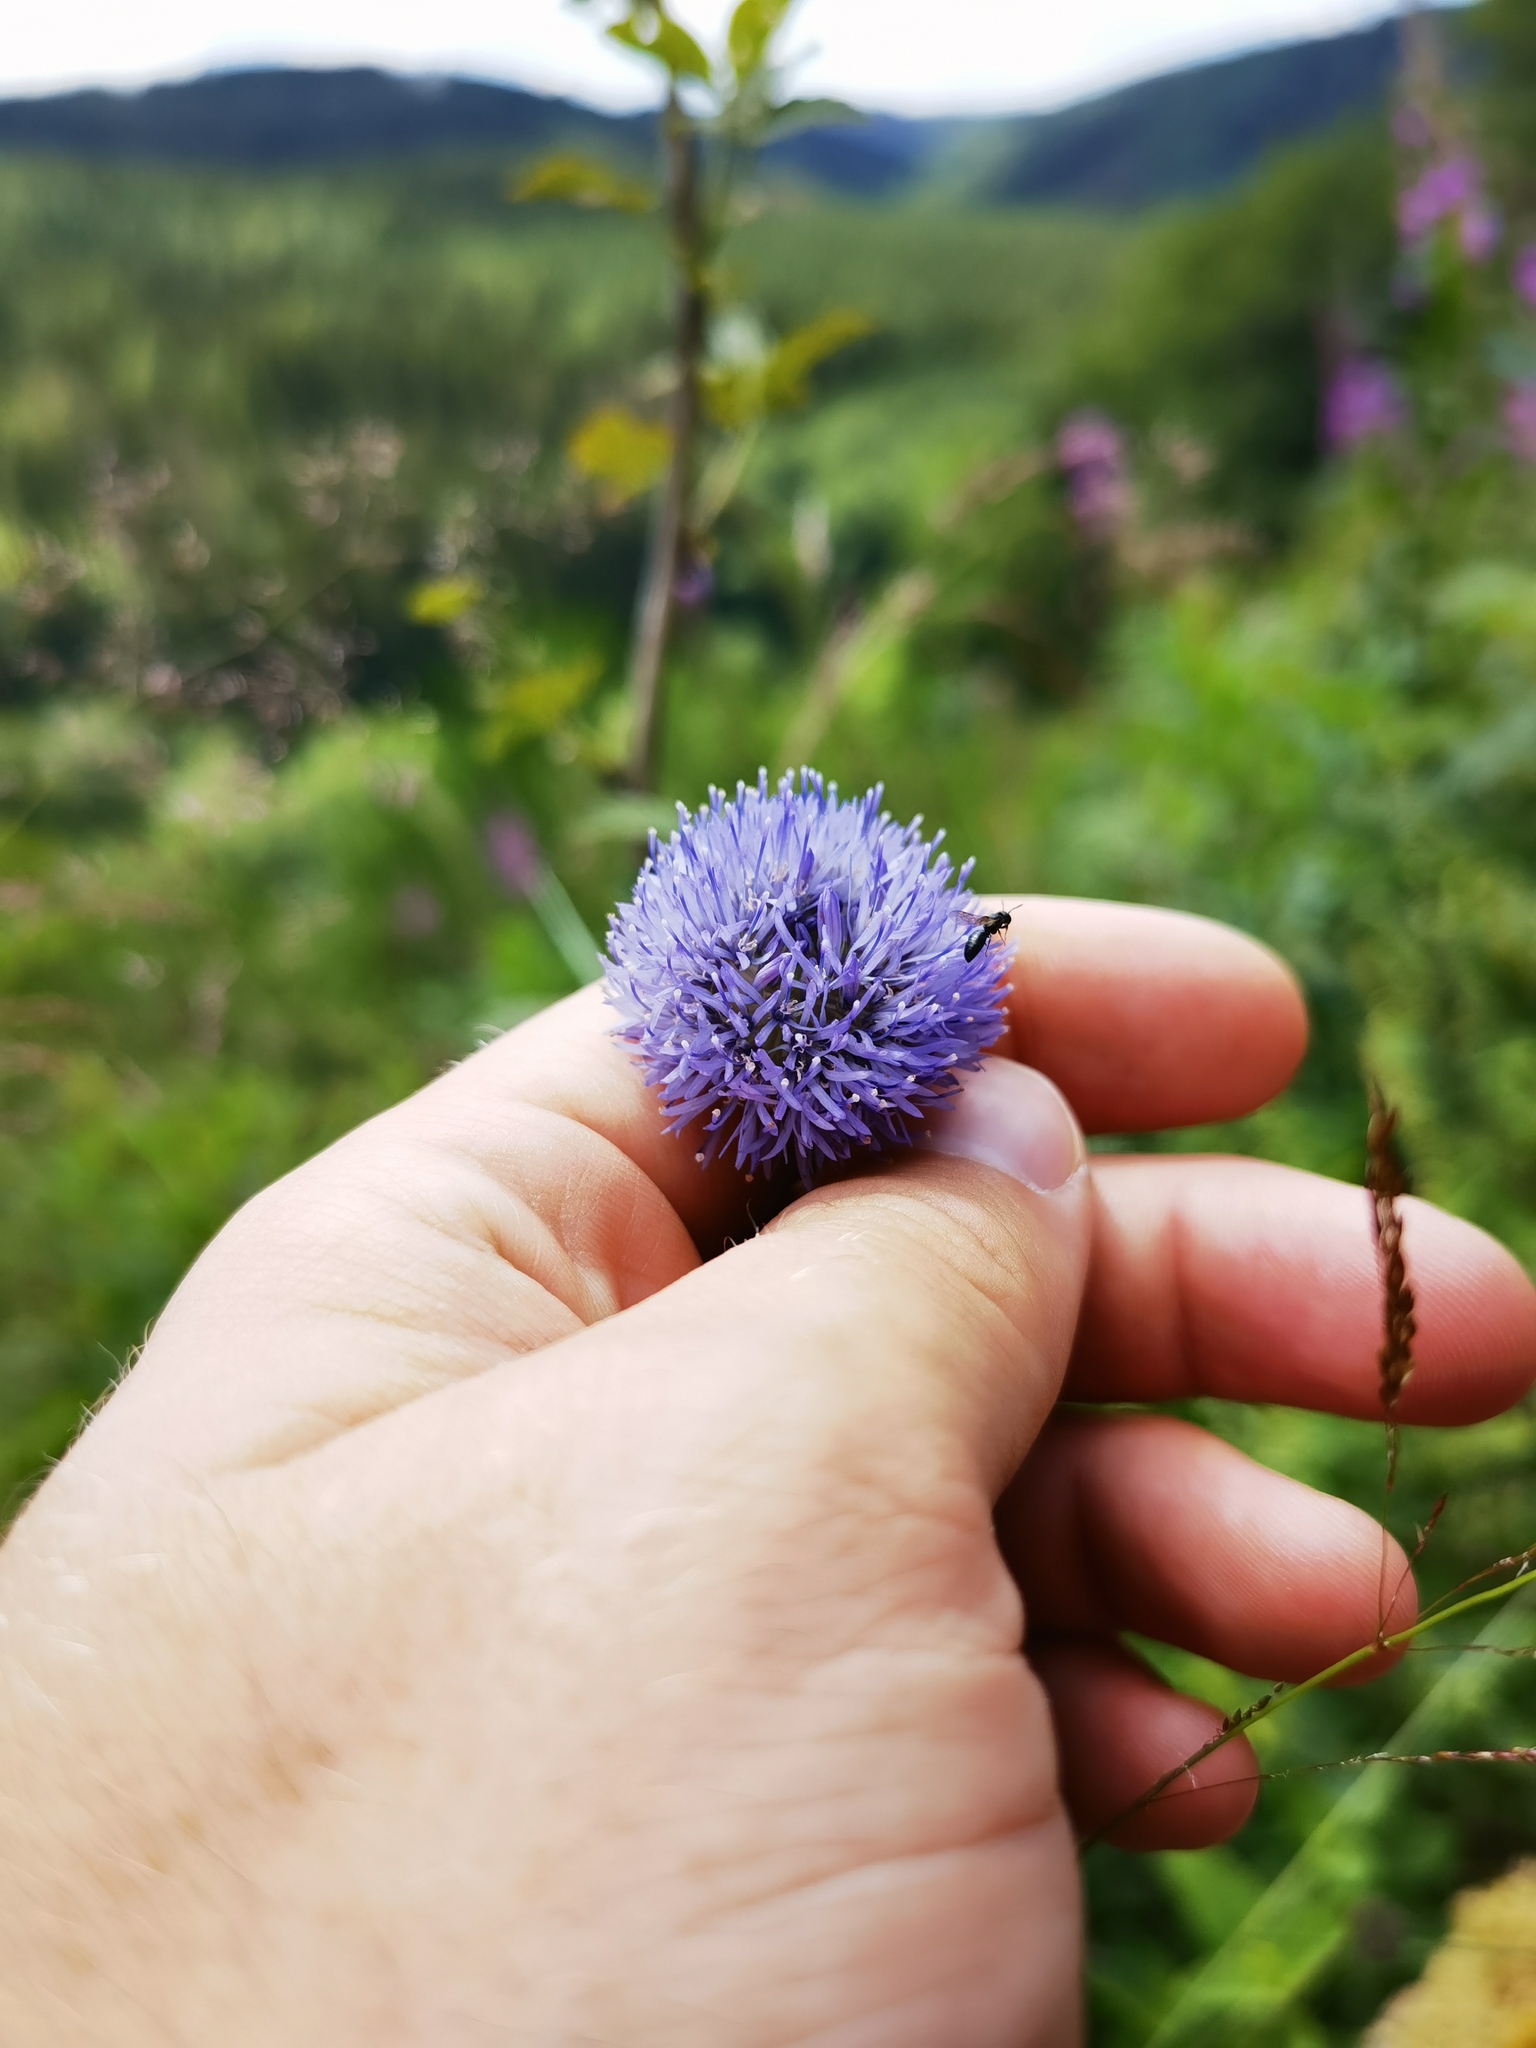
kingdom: Plantae
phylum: Tracheophyta
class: Magnoliopsida
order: Asterales
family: Campanulaceae
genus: Jasione
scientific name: Jasione montana
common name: Sheep's-bit
